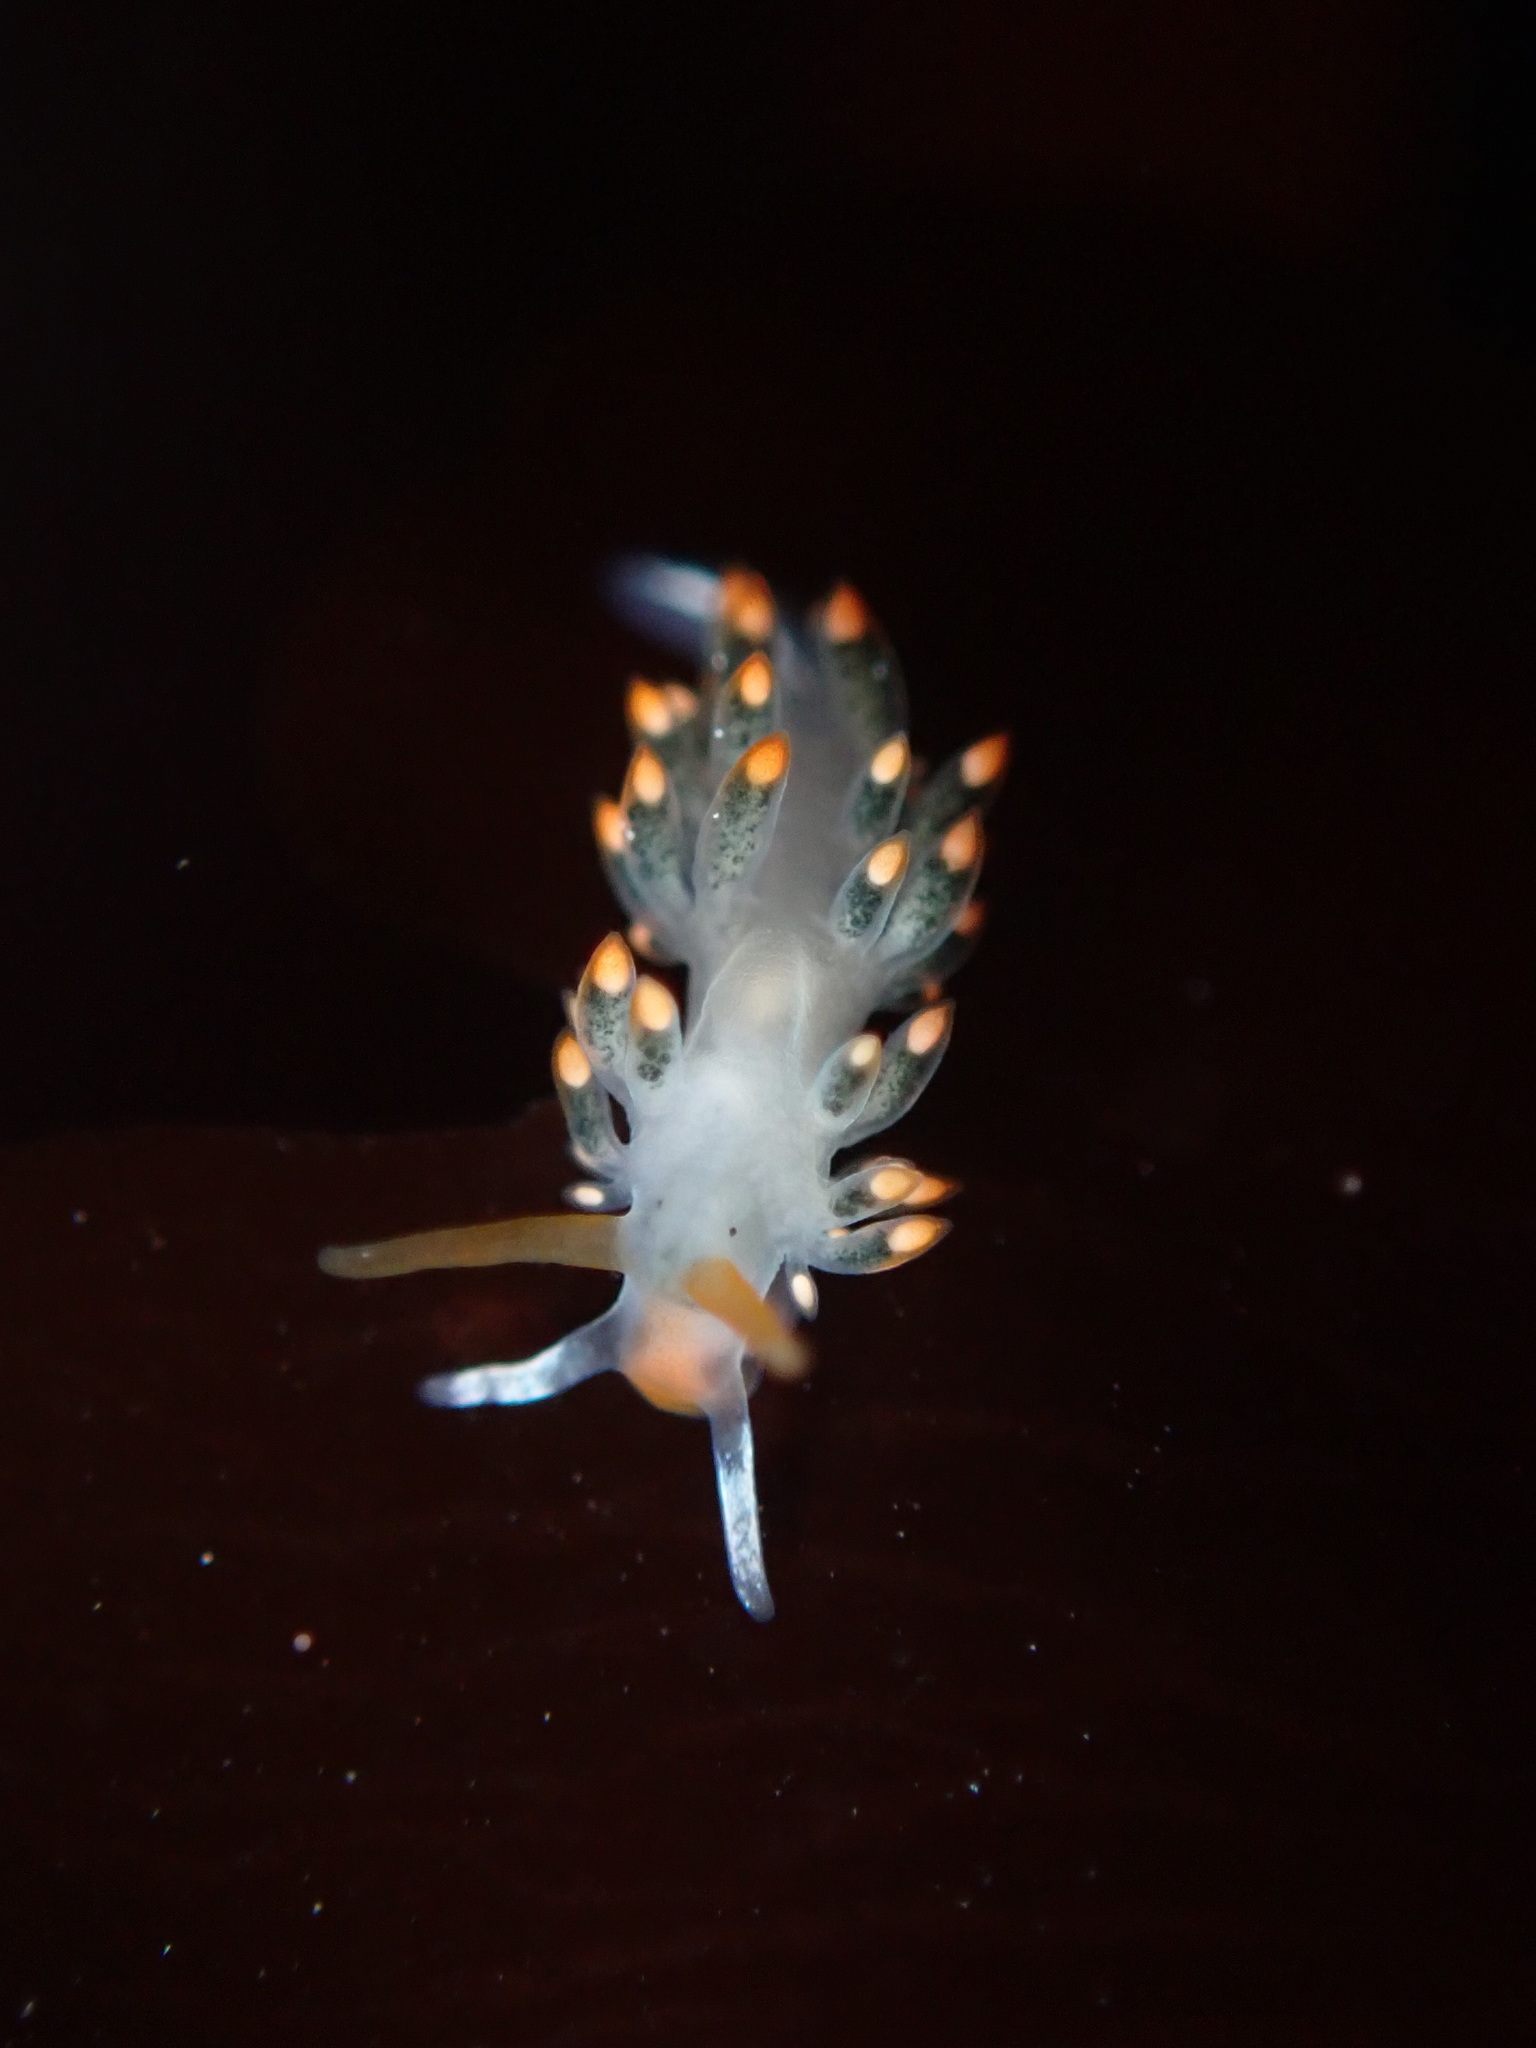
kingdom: Animalia
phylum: Mollusca
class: Gastropoda
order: Nudibranchia
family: Trinchesiidae
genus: Diaphoreolis
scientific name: Diaphoreolis lagunae
